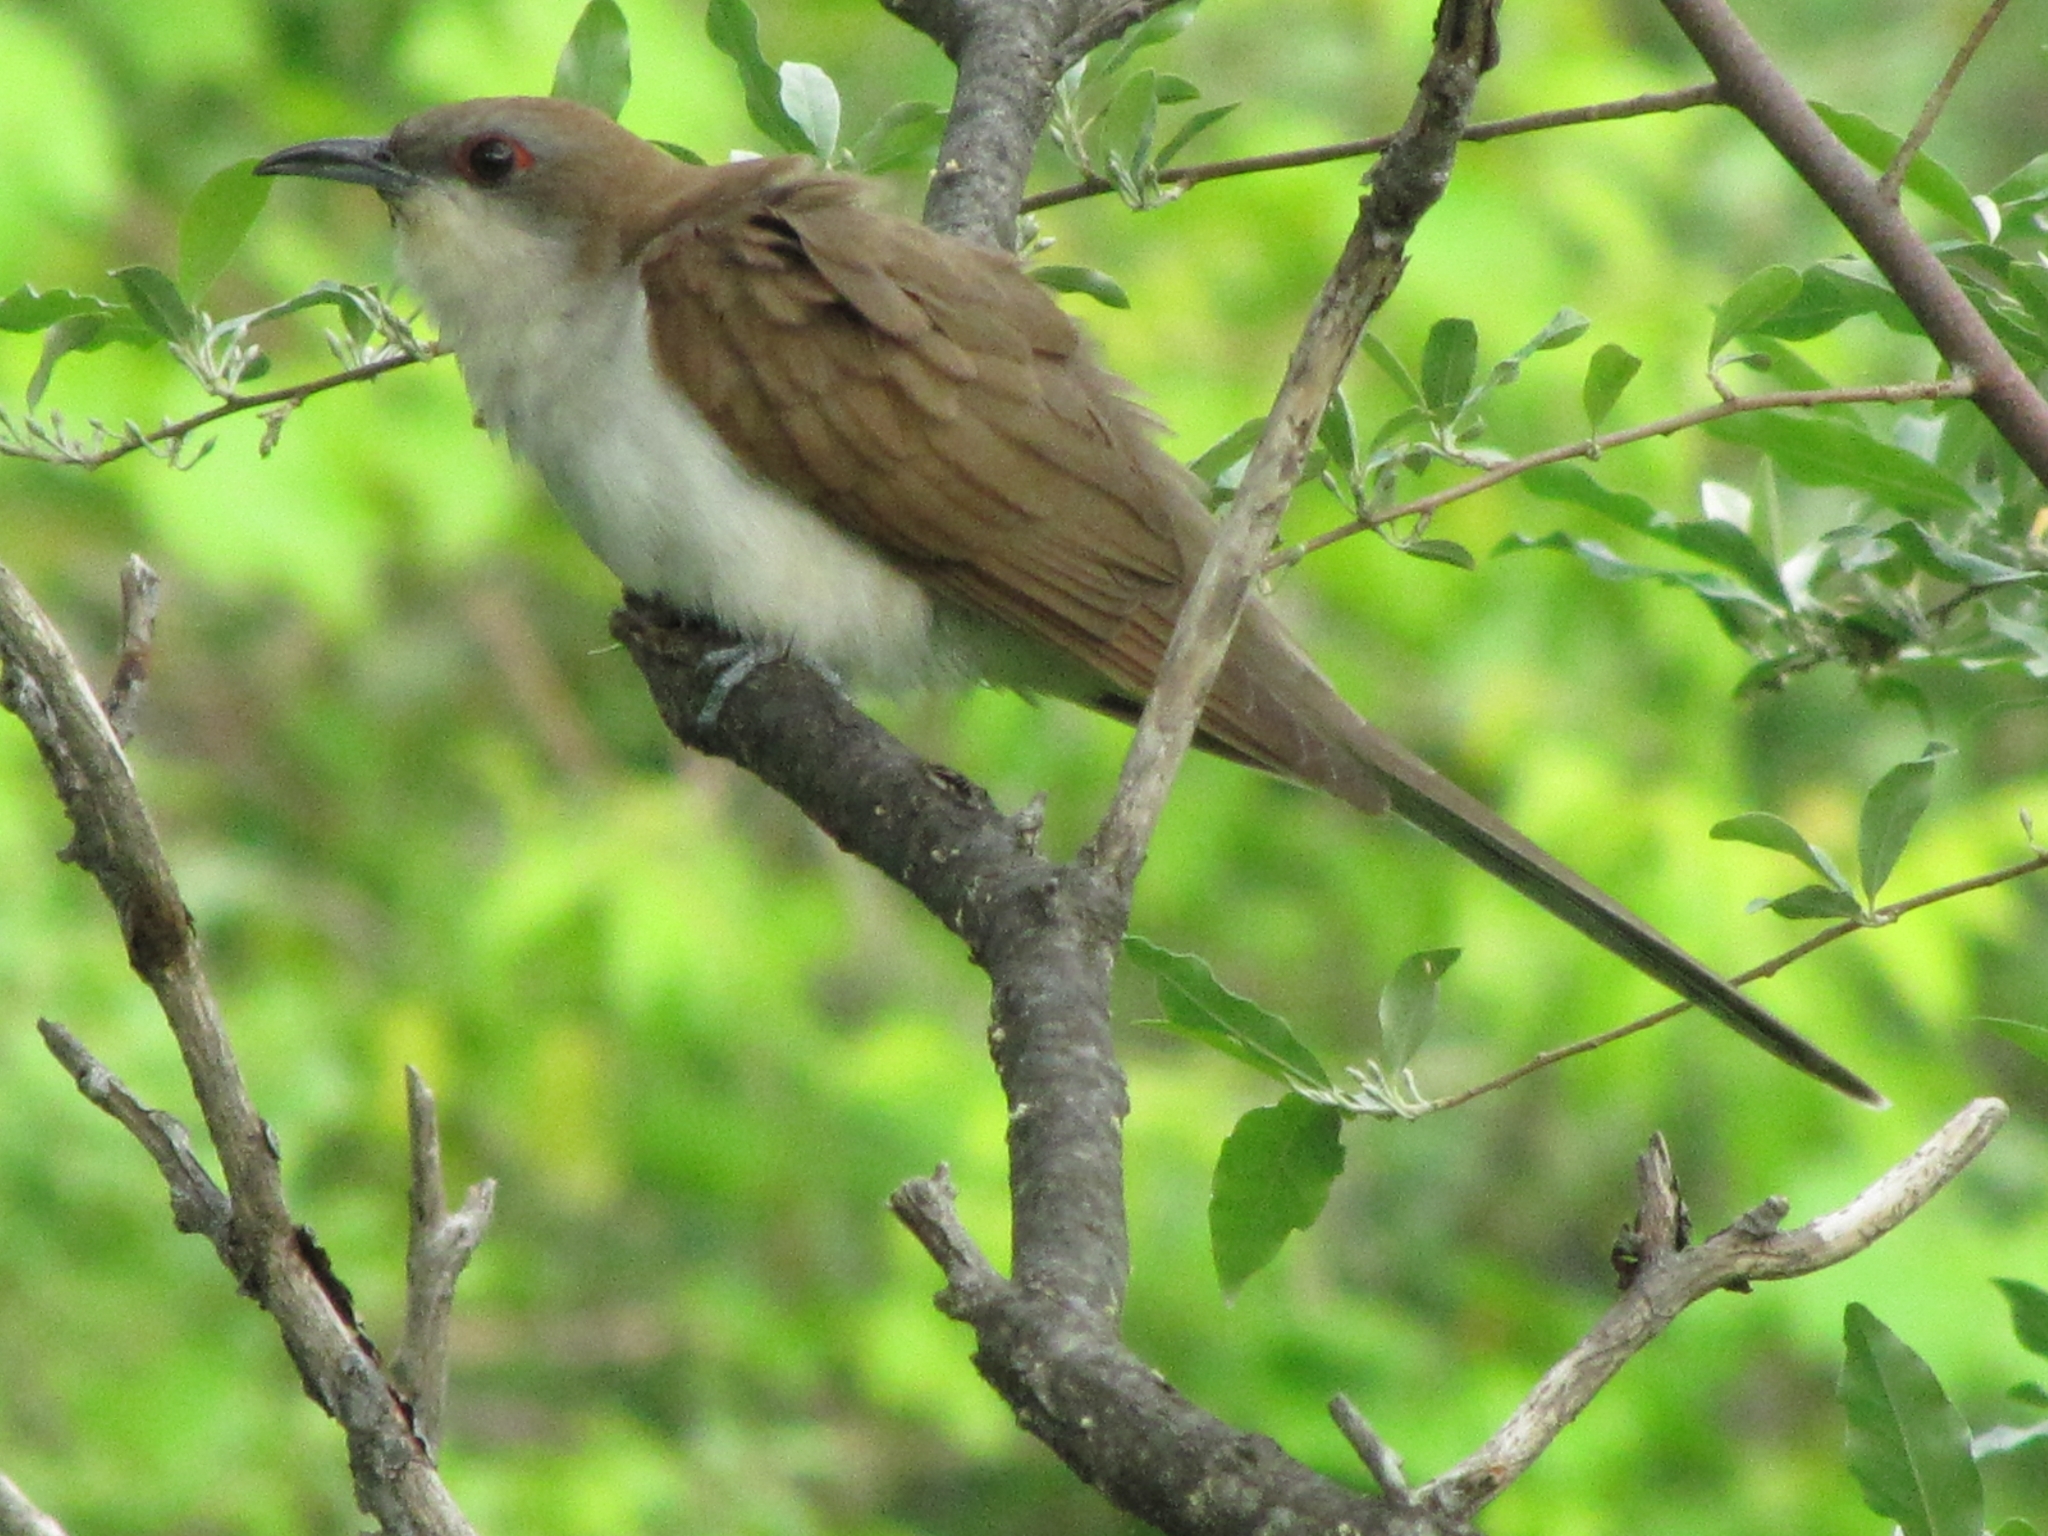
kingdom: Animalia
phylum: Chordata
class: Aves
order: Cuculiformes
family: Cuculidae
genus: Coccyzus
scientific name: Coccyzus erythropthalmus
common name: Black-billed cuckoo
